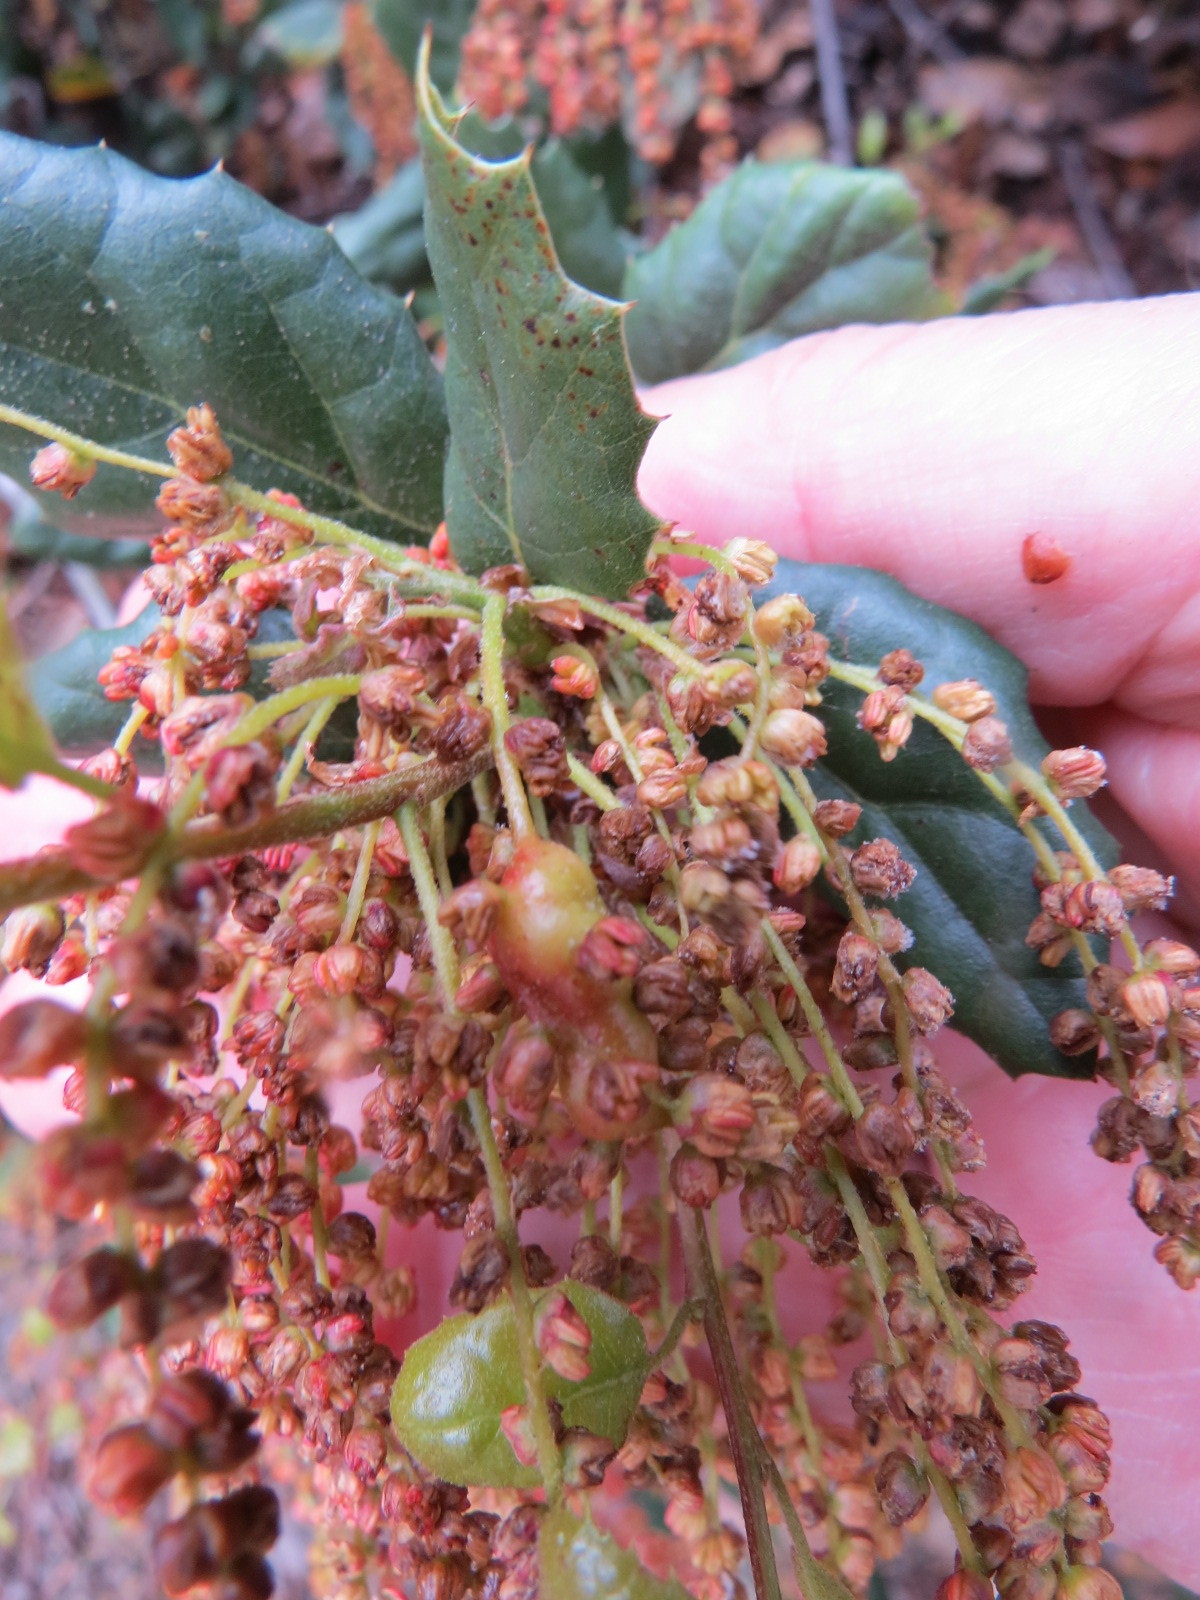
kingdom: Animalia
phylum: Arthropoda
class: Insecta
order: Hymenoptera
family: Cynipidae
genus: Callirhytis
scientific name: Callirhytis
